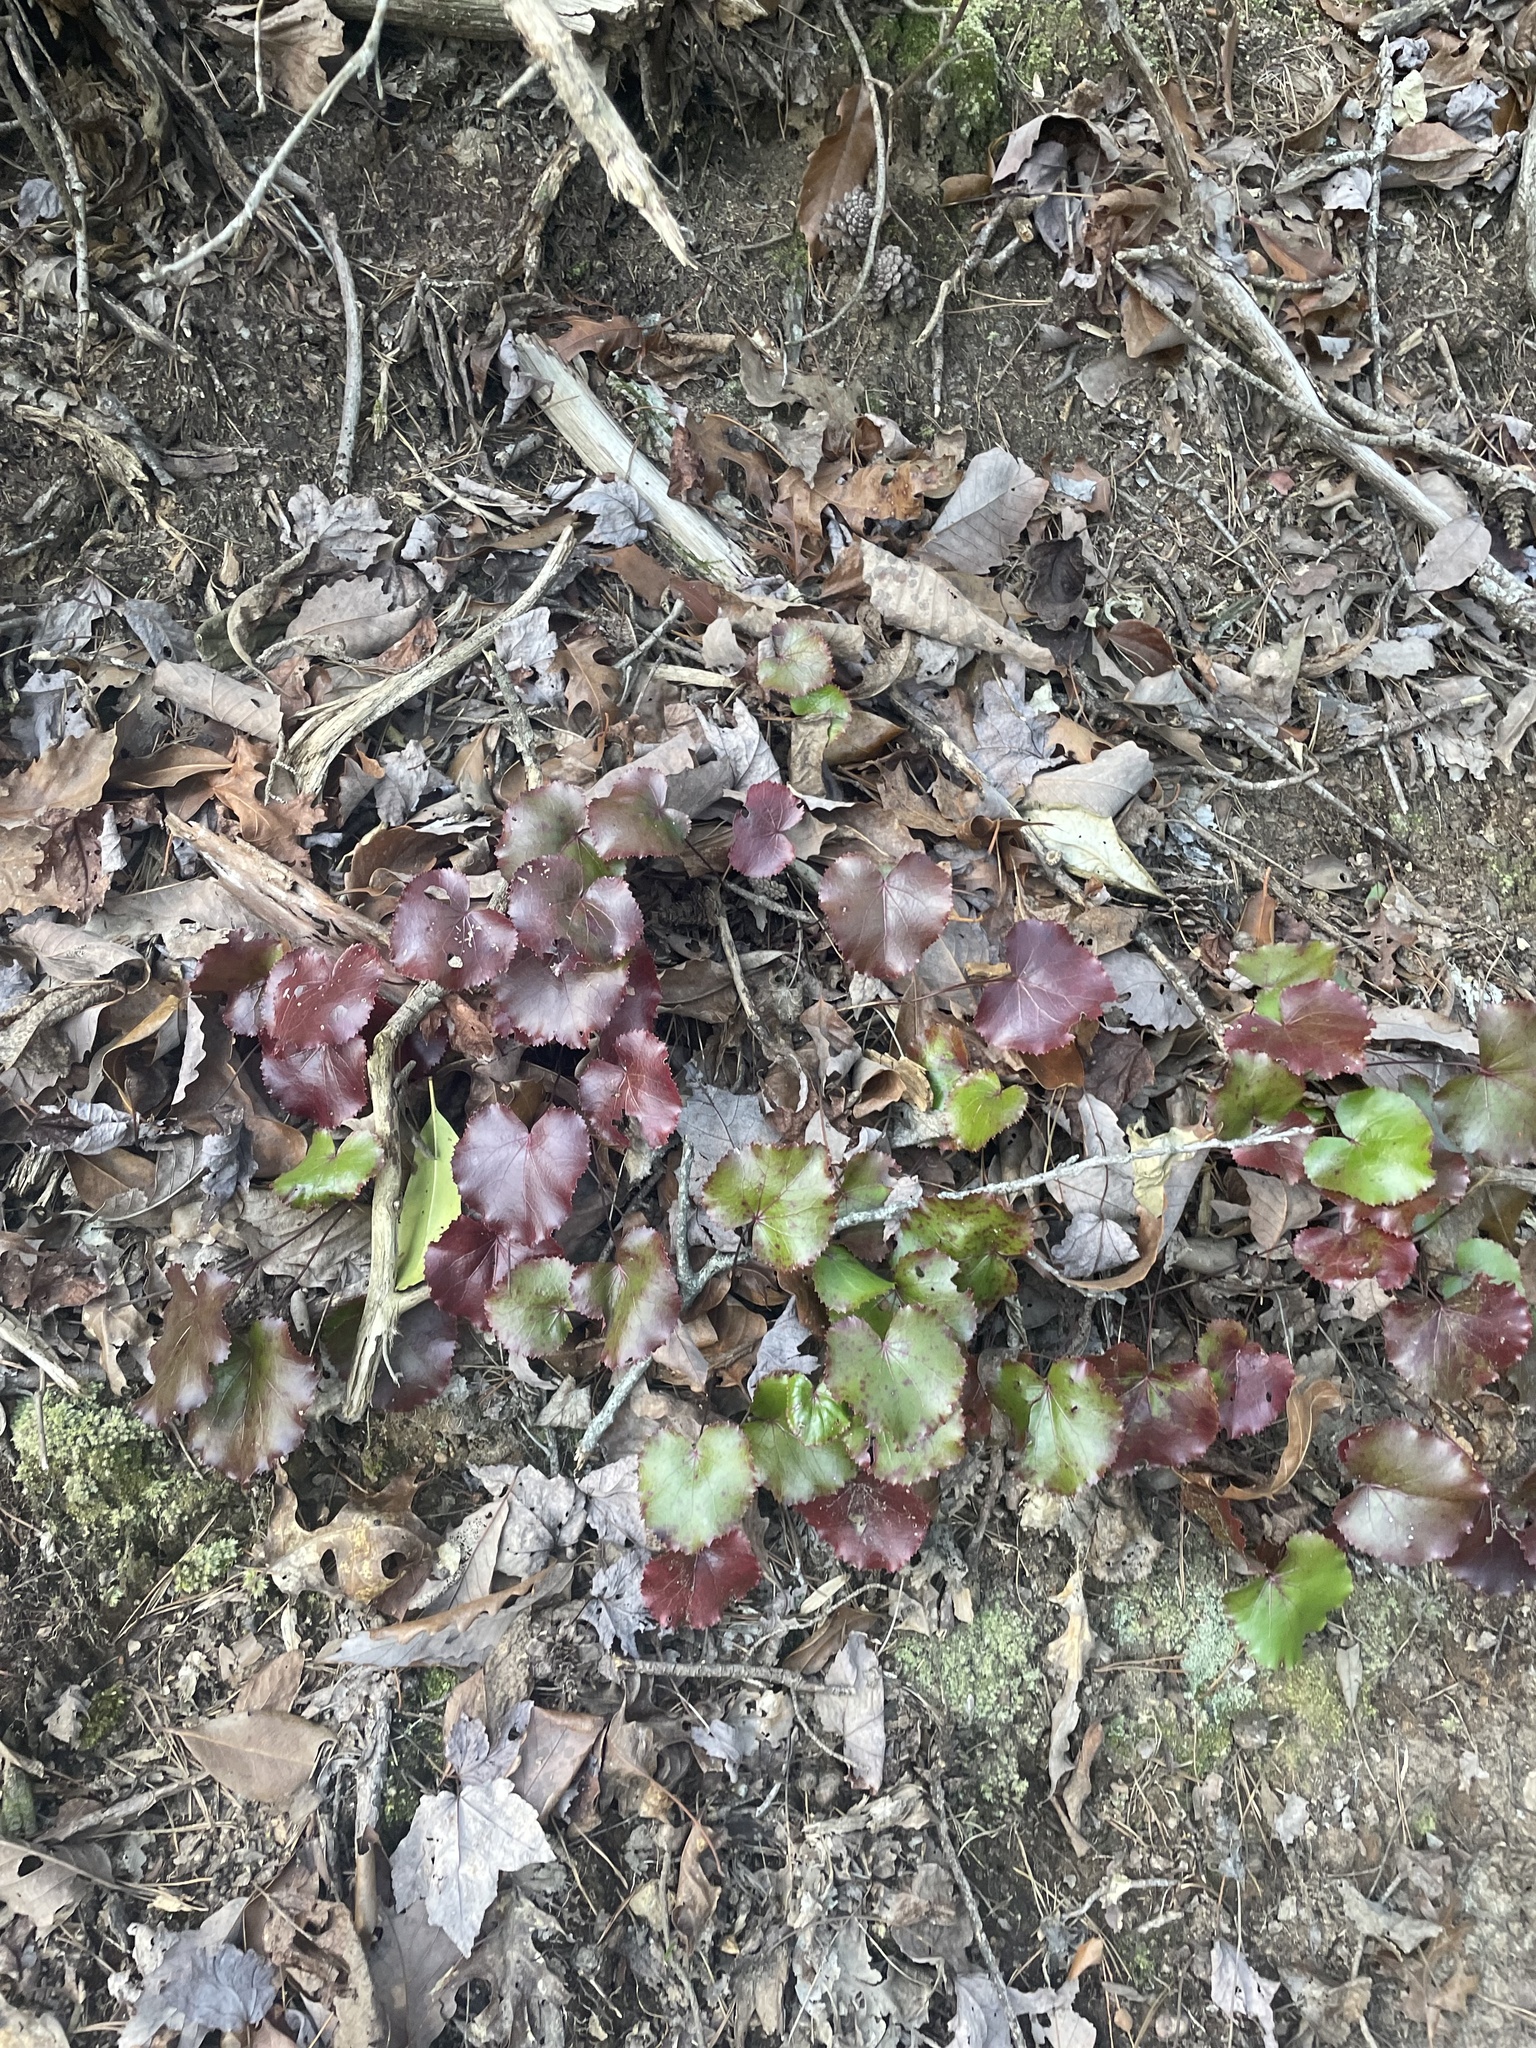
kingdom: Plantae
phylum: Tracheophyta
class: Magnoliopsida
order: Ericales
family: Diapensiaceae
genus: Galax
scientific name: Galax urceolata
